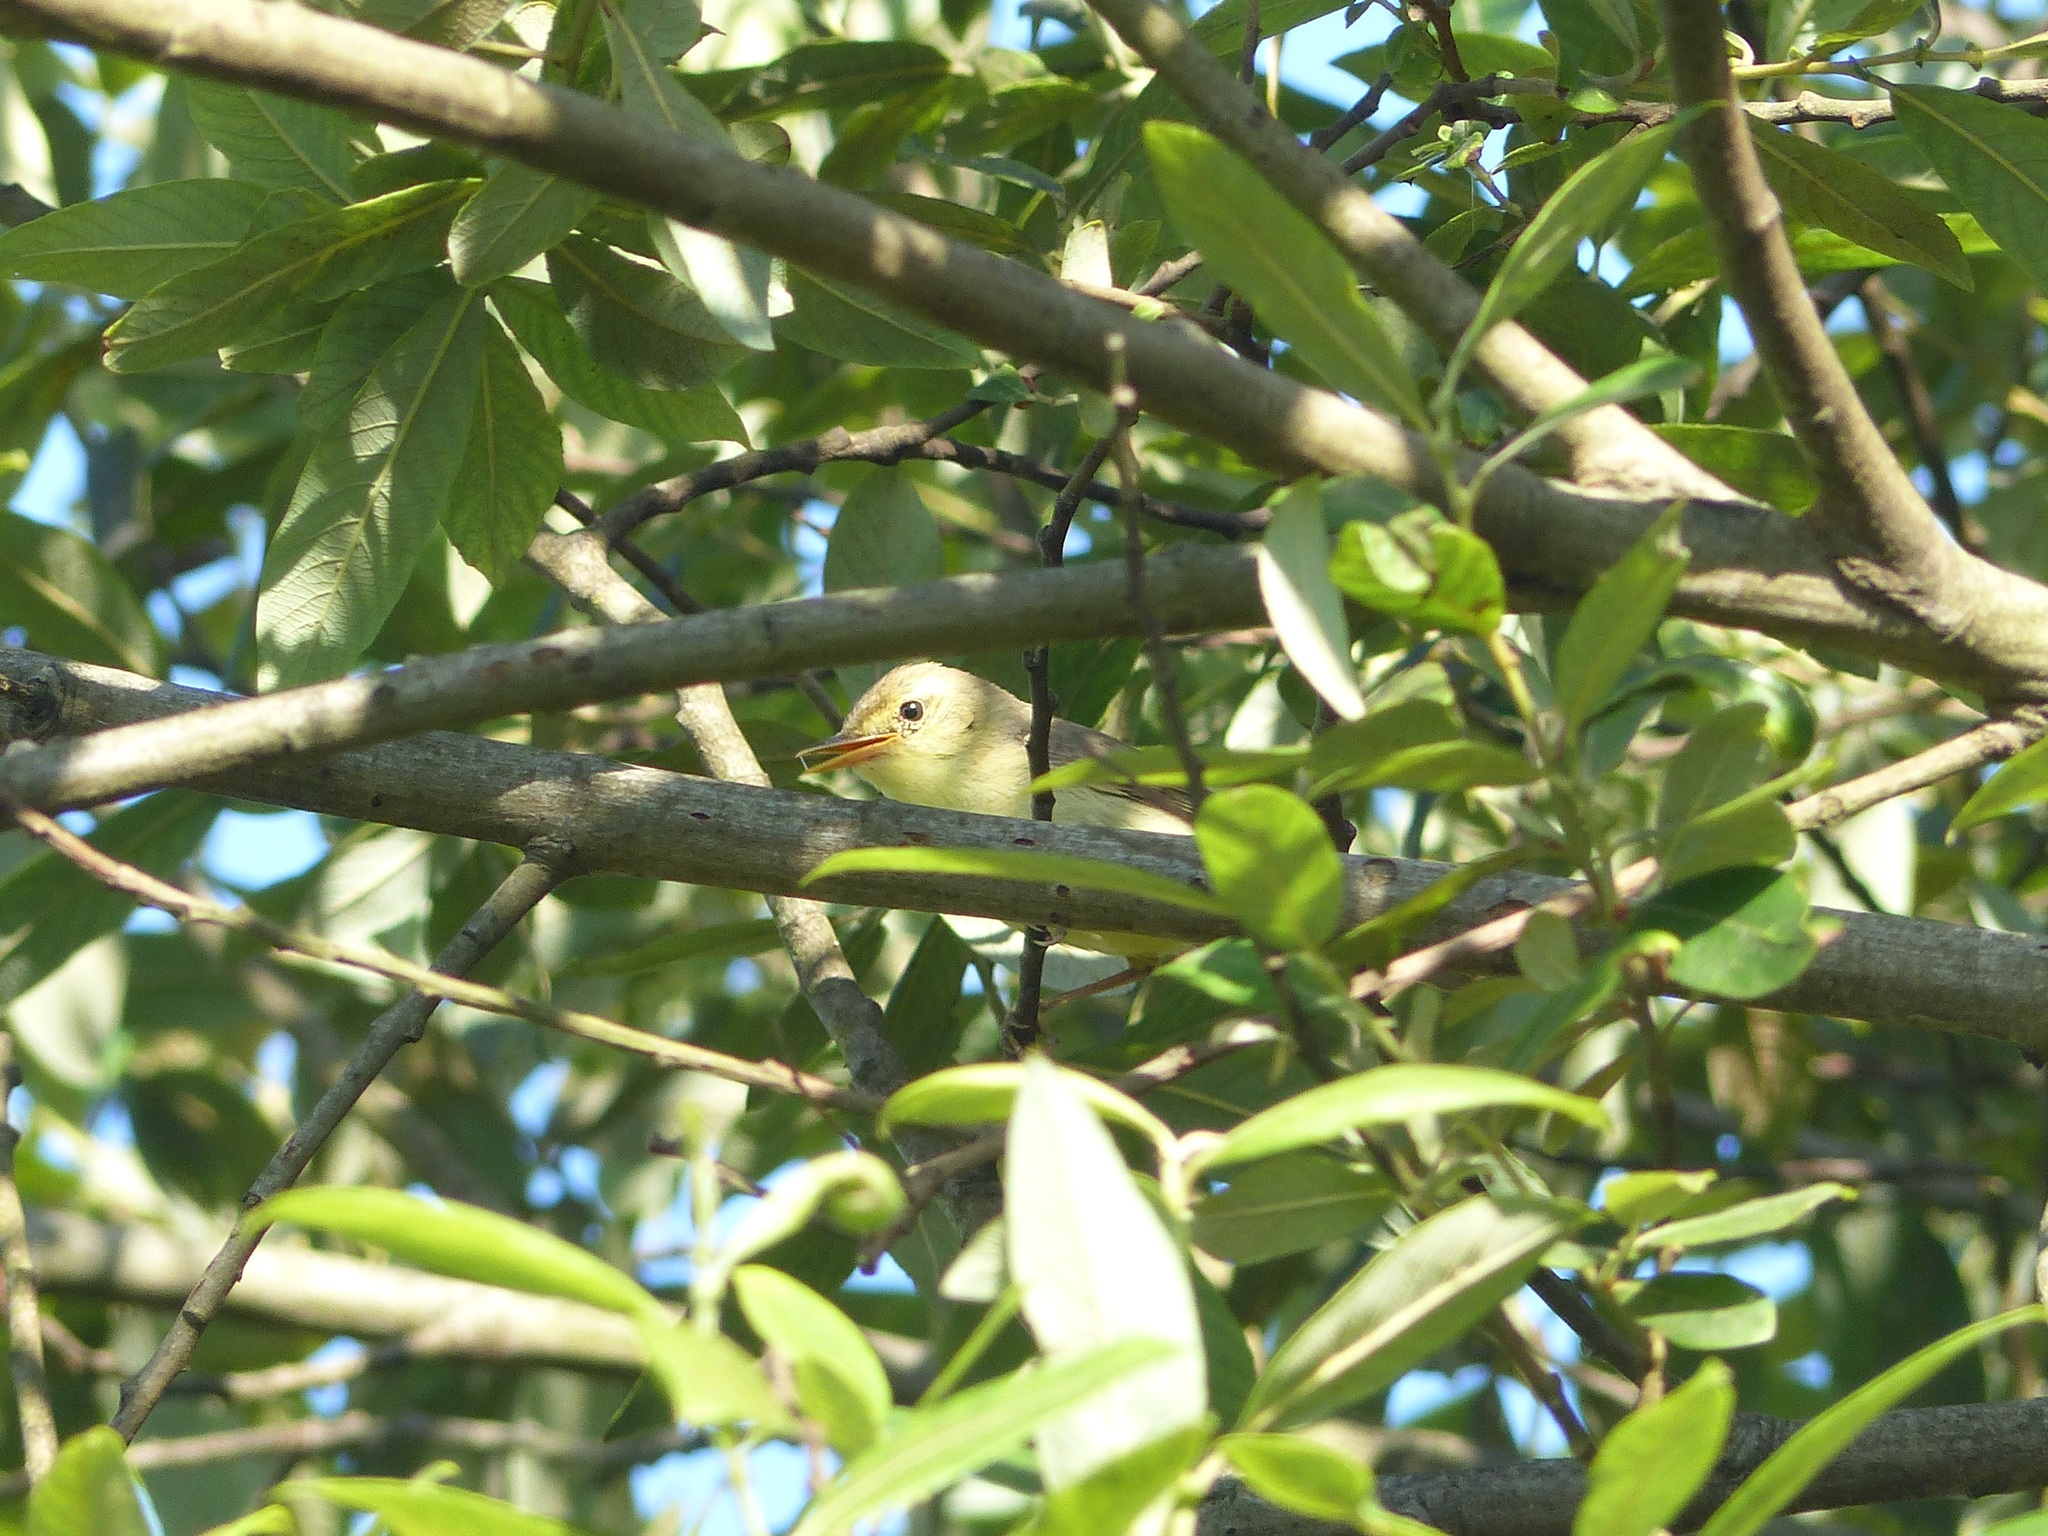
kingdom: Animalia
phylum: Chordata
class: Aves
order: Passeriformes
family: Acrocephalidae
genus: Hippolais
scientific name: Hippolais polyglotta
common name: Melodious warbler
